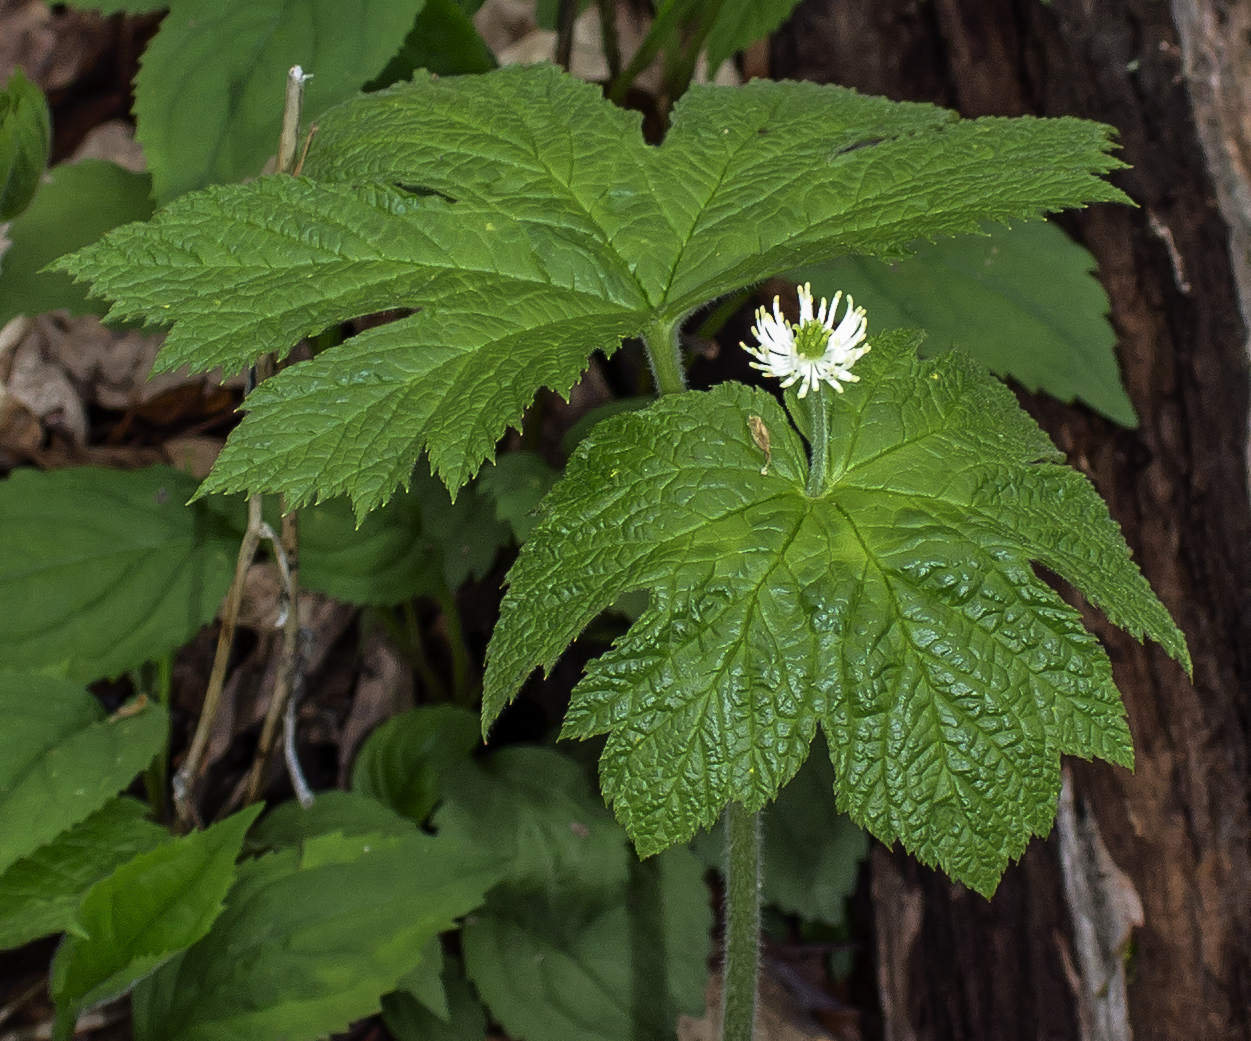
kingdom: Plantae
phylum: Tracheophyta
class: Magnoliopsida
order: Ranunculales
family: Ranunculaceae
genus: Hydrastis
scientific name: Hydrastis canadensis
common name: Goldenseal
